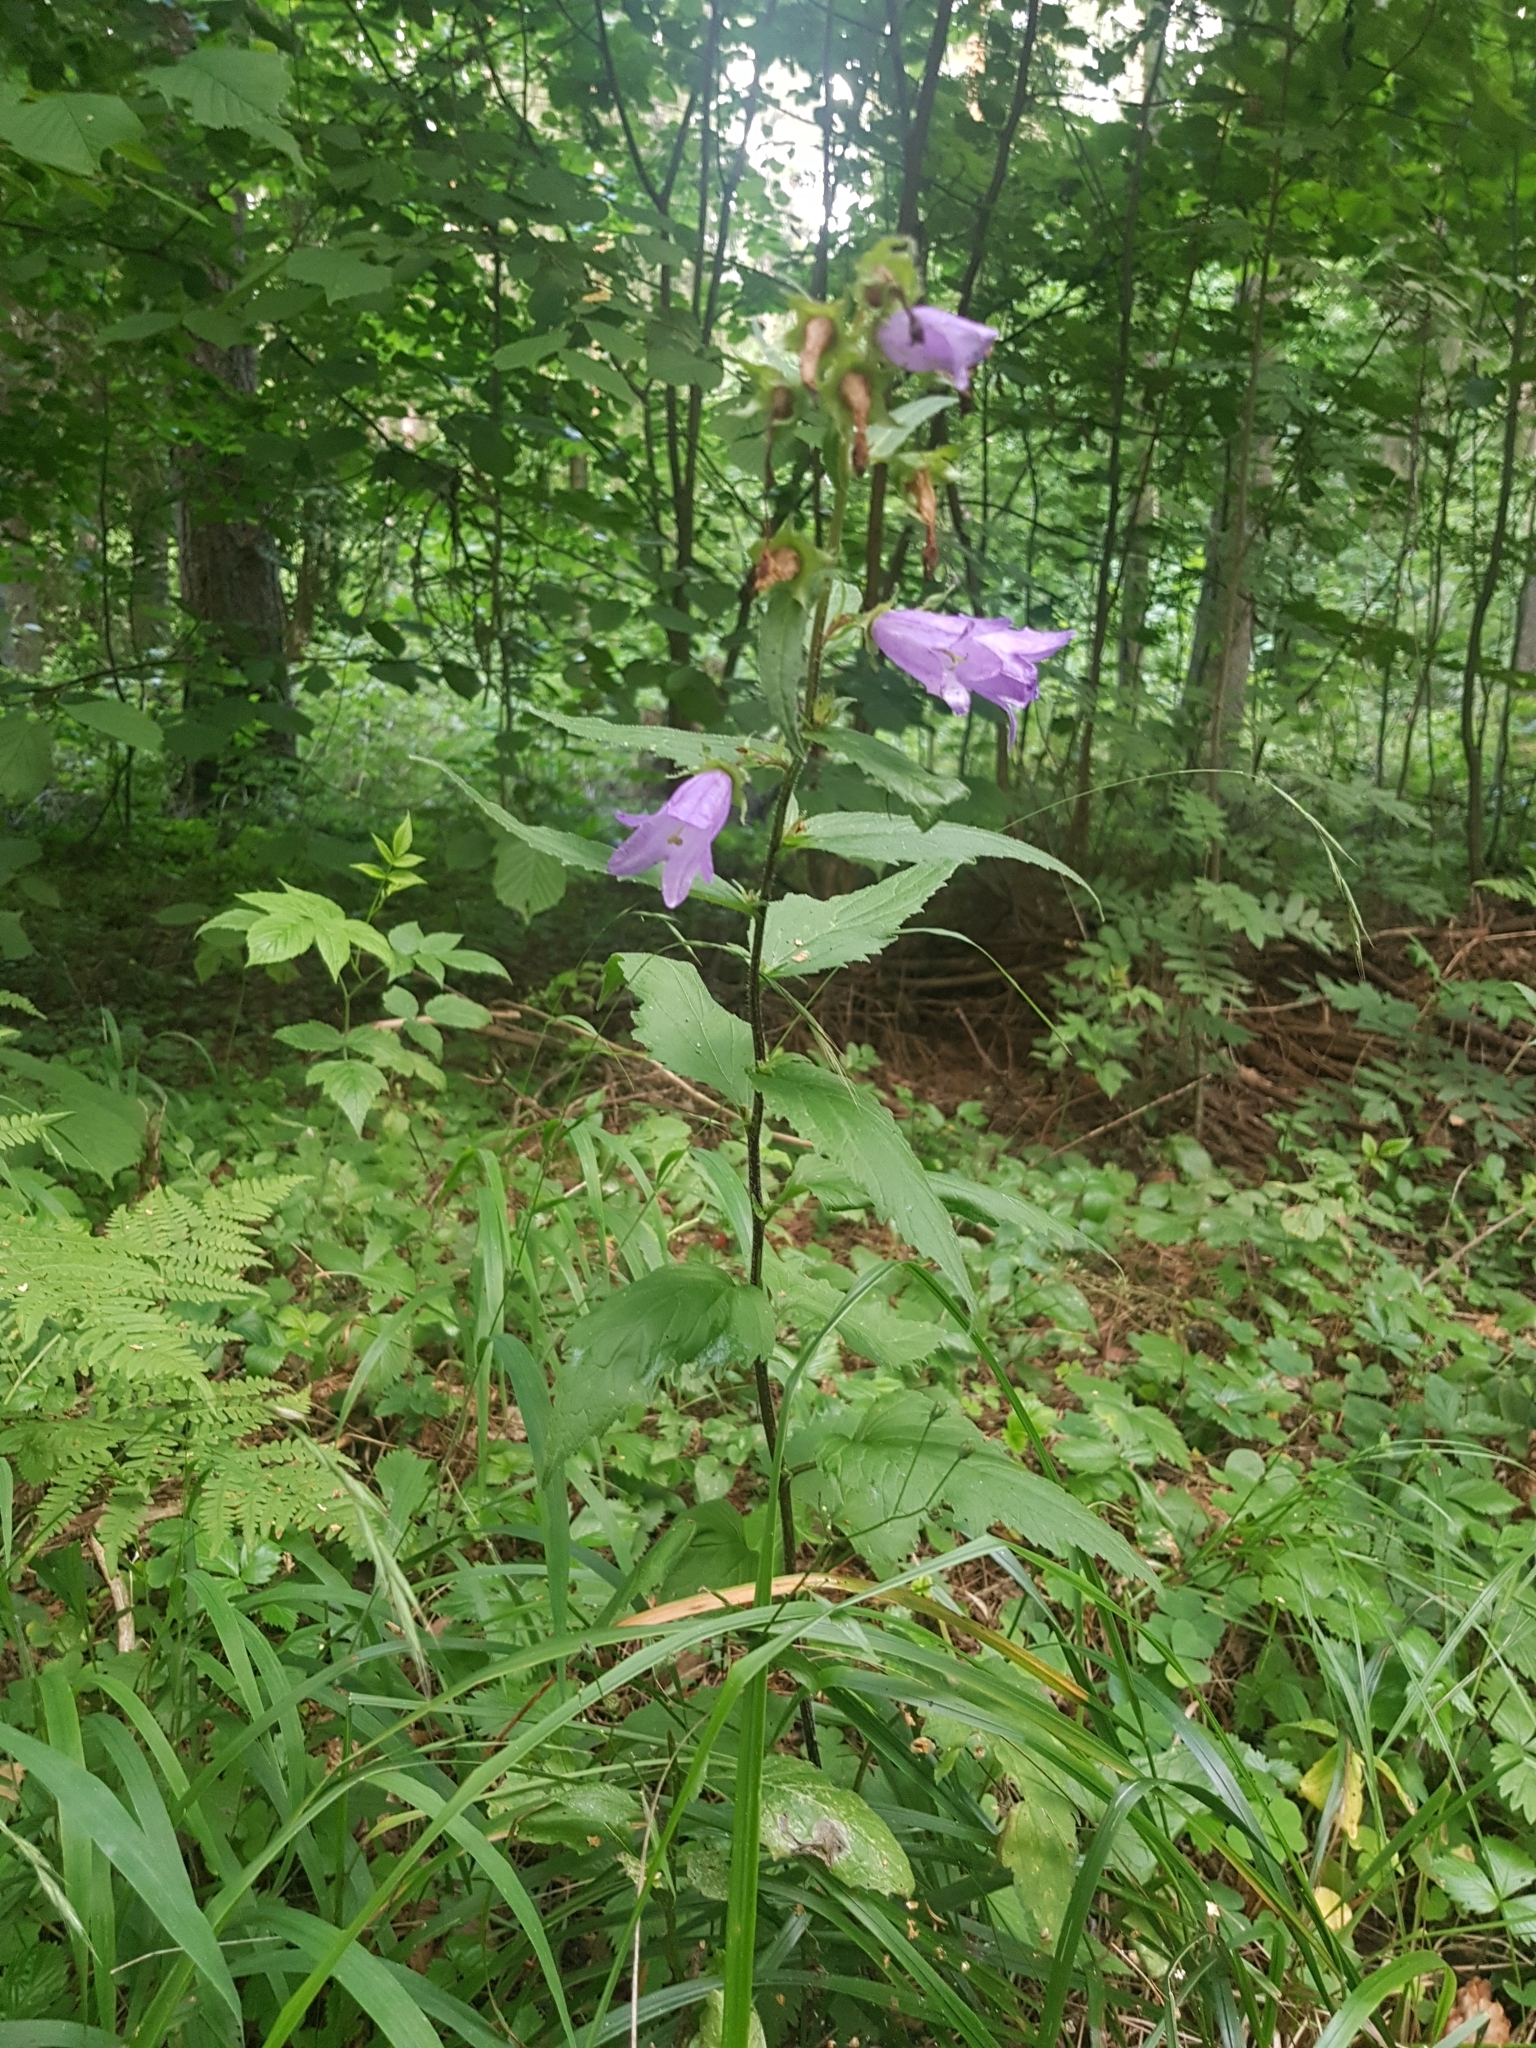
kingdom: Plantae
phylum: Tracheophyta
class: Magnoliopsida
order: Asterales
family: Campanulaceae
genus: Campanula
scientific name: Campanula trachelium
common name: Nettle-leaved bellflower
